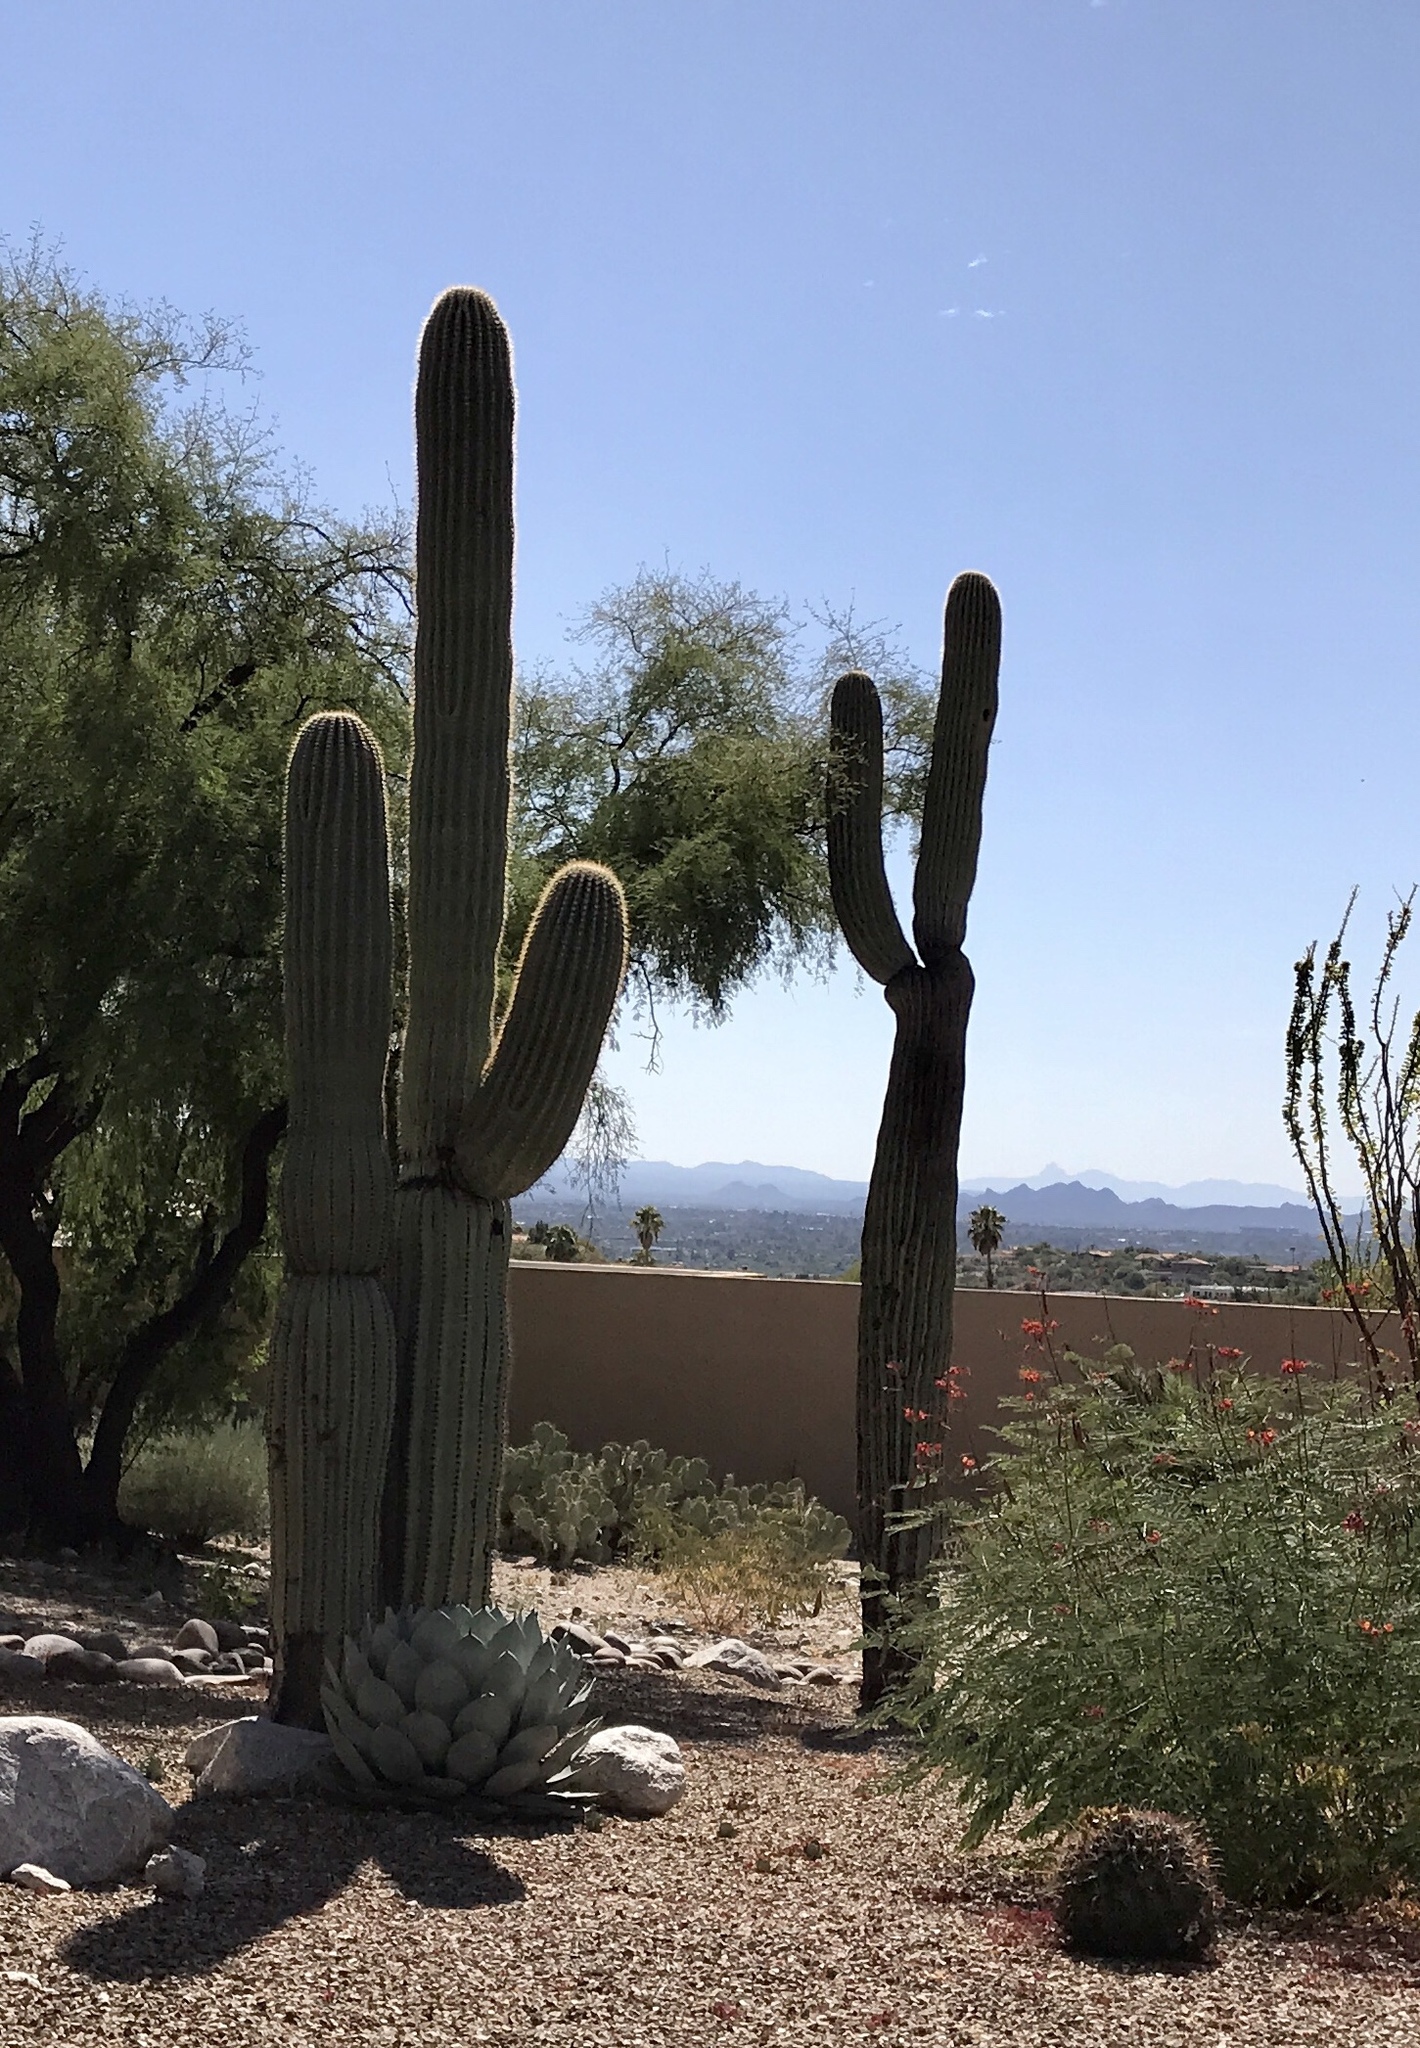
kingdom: Plantae
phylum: Tracheophyta
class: Magnoliopsida
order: Caryophyllales
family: Cactaceae
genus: Carnegiea
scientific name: Carnegiea gigantea
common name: Saguaro
